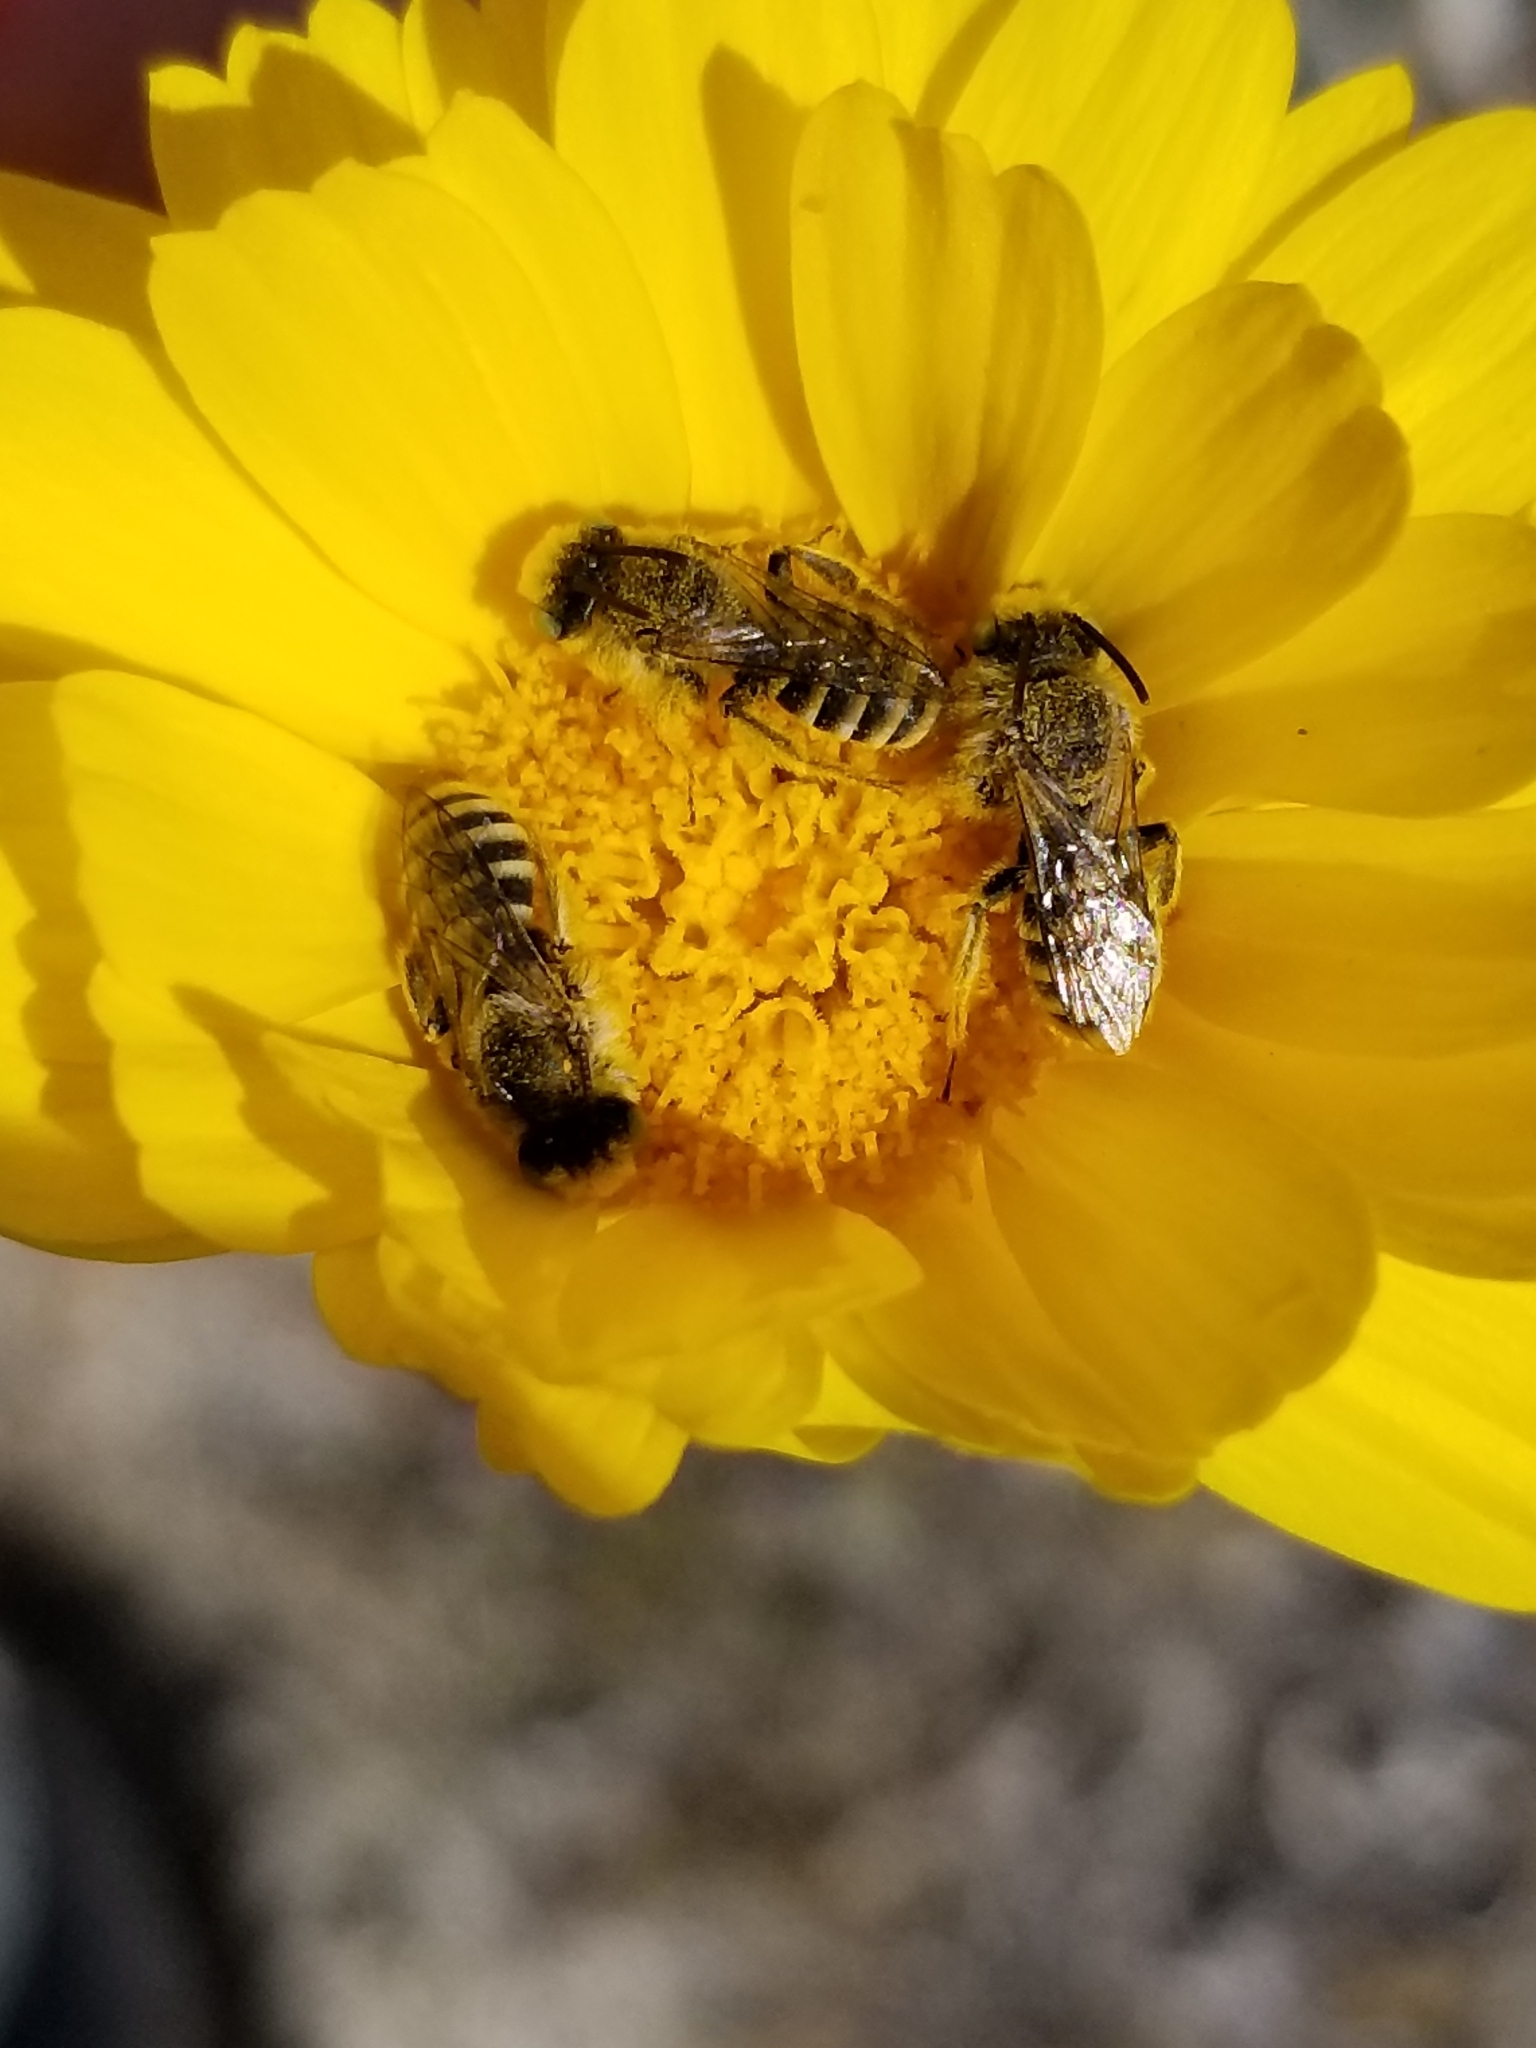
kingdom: Animalia
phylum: Arthropoda
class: Insecta
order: Hymenoptera
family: Melittidae
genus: Hesperapis
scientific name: Hesperapis
